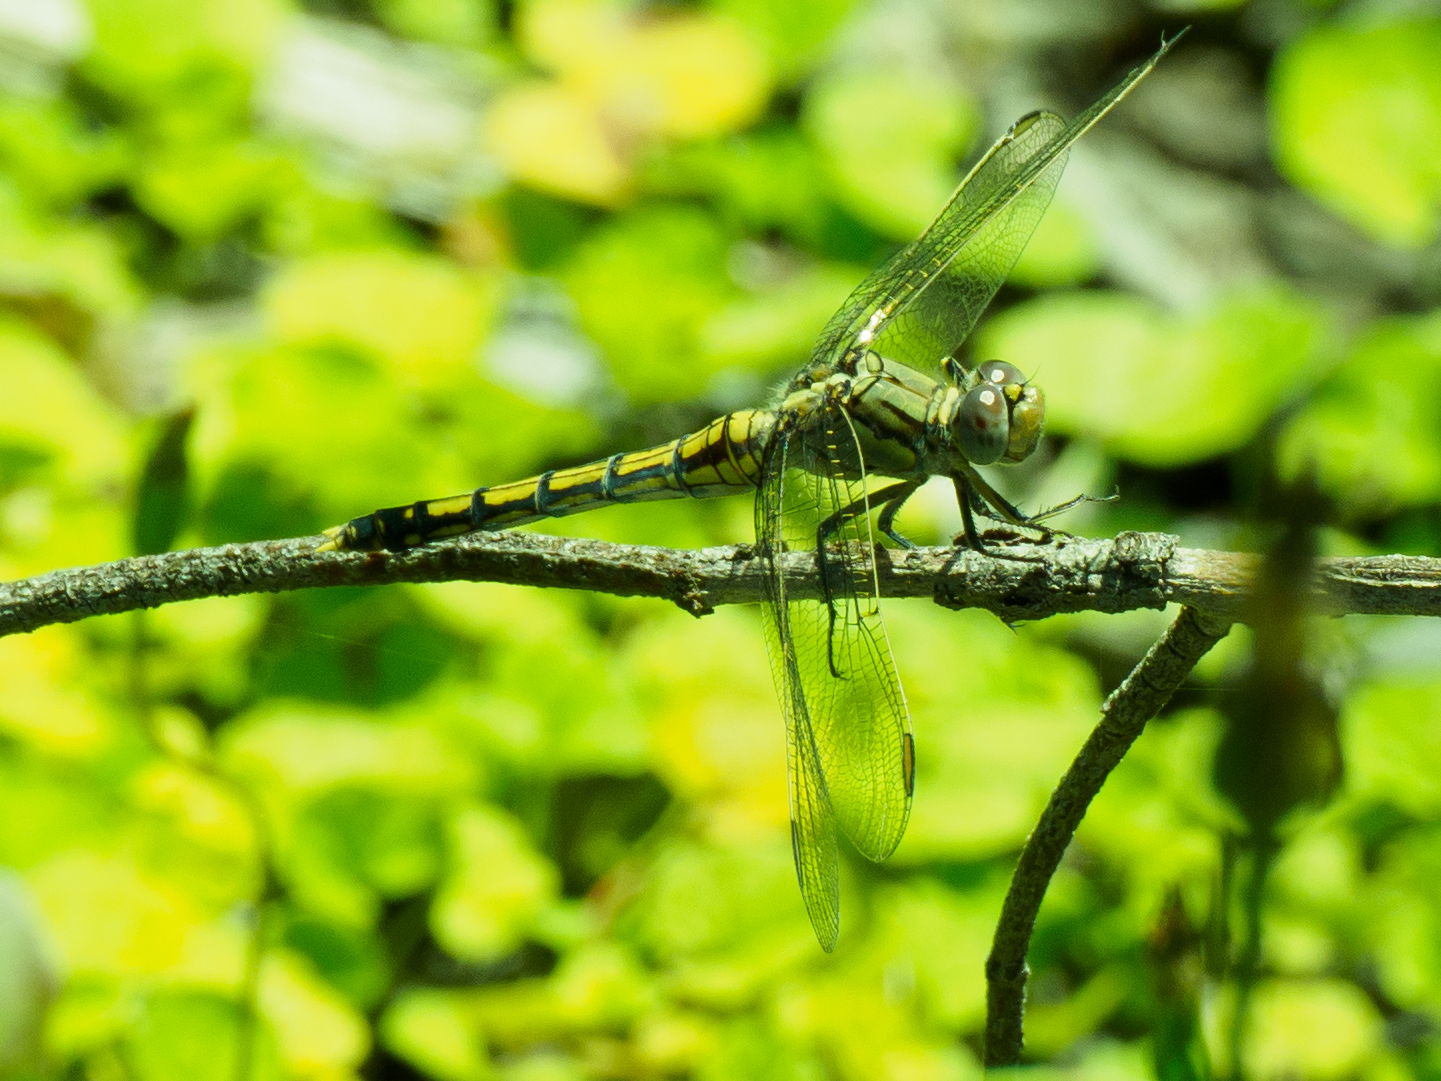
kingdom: Animalia
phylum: Arthropoda
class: Insecta
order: Odonata
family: Libellulidae
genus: Orthetrum
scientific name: Orthetrum caledonicum
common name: Blue skimmer
